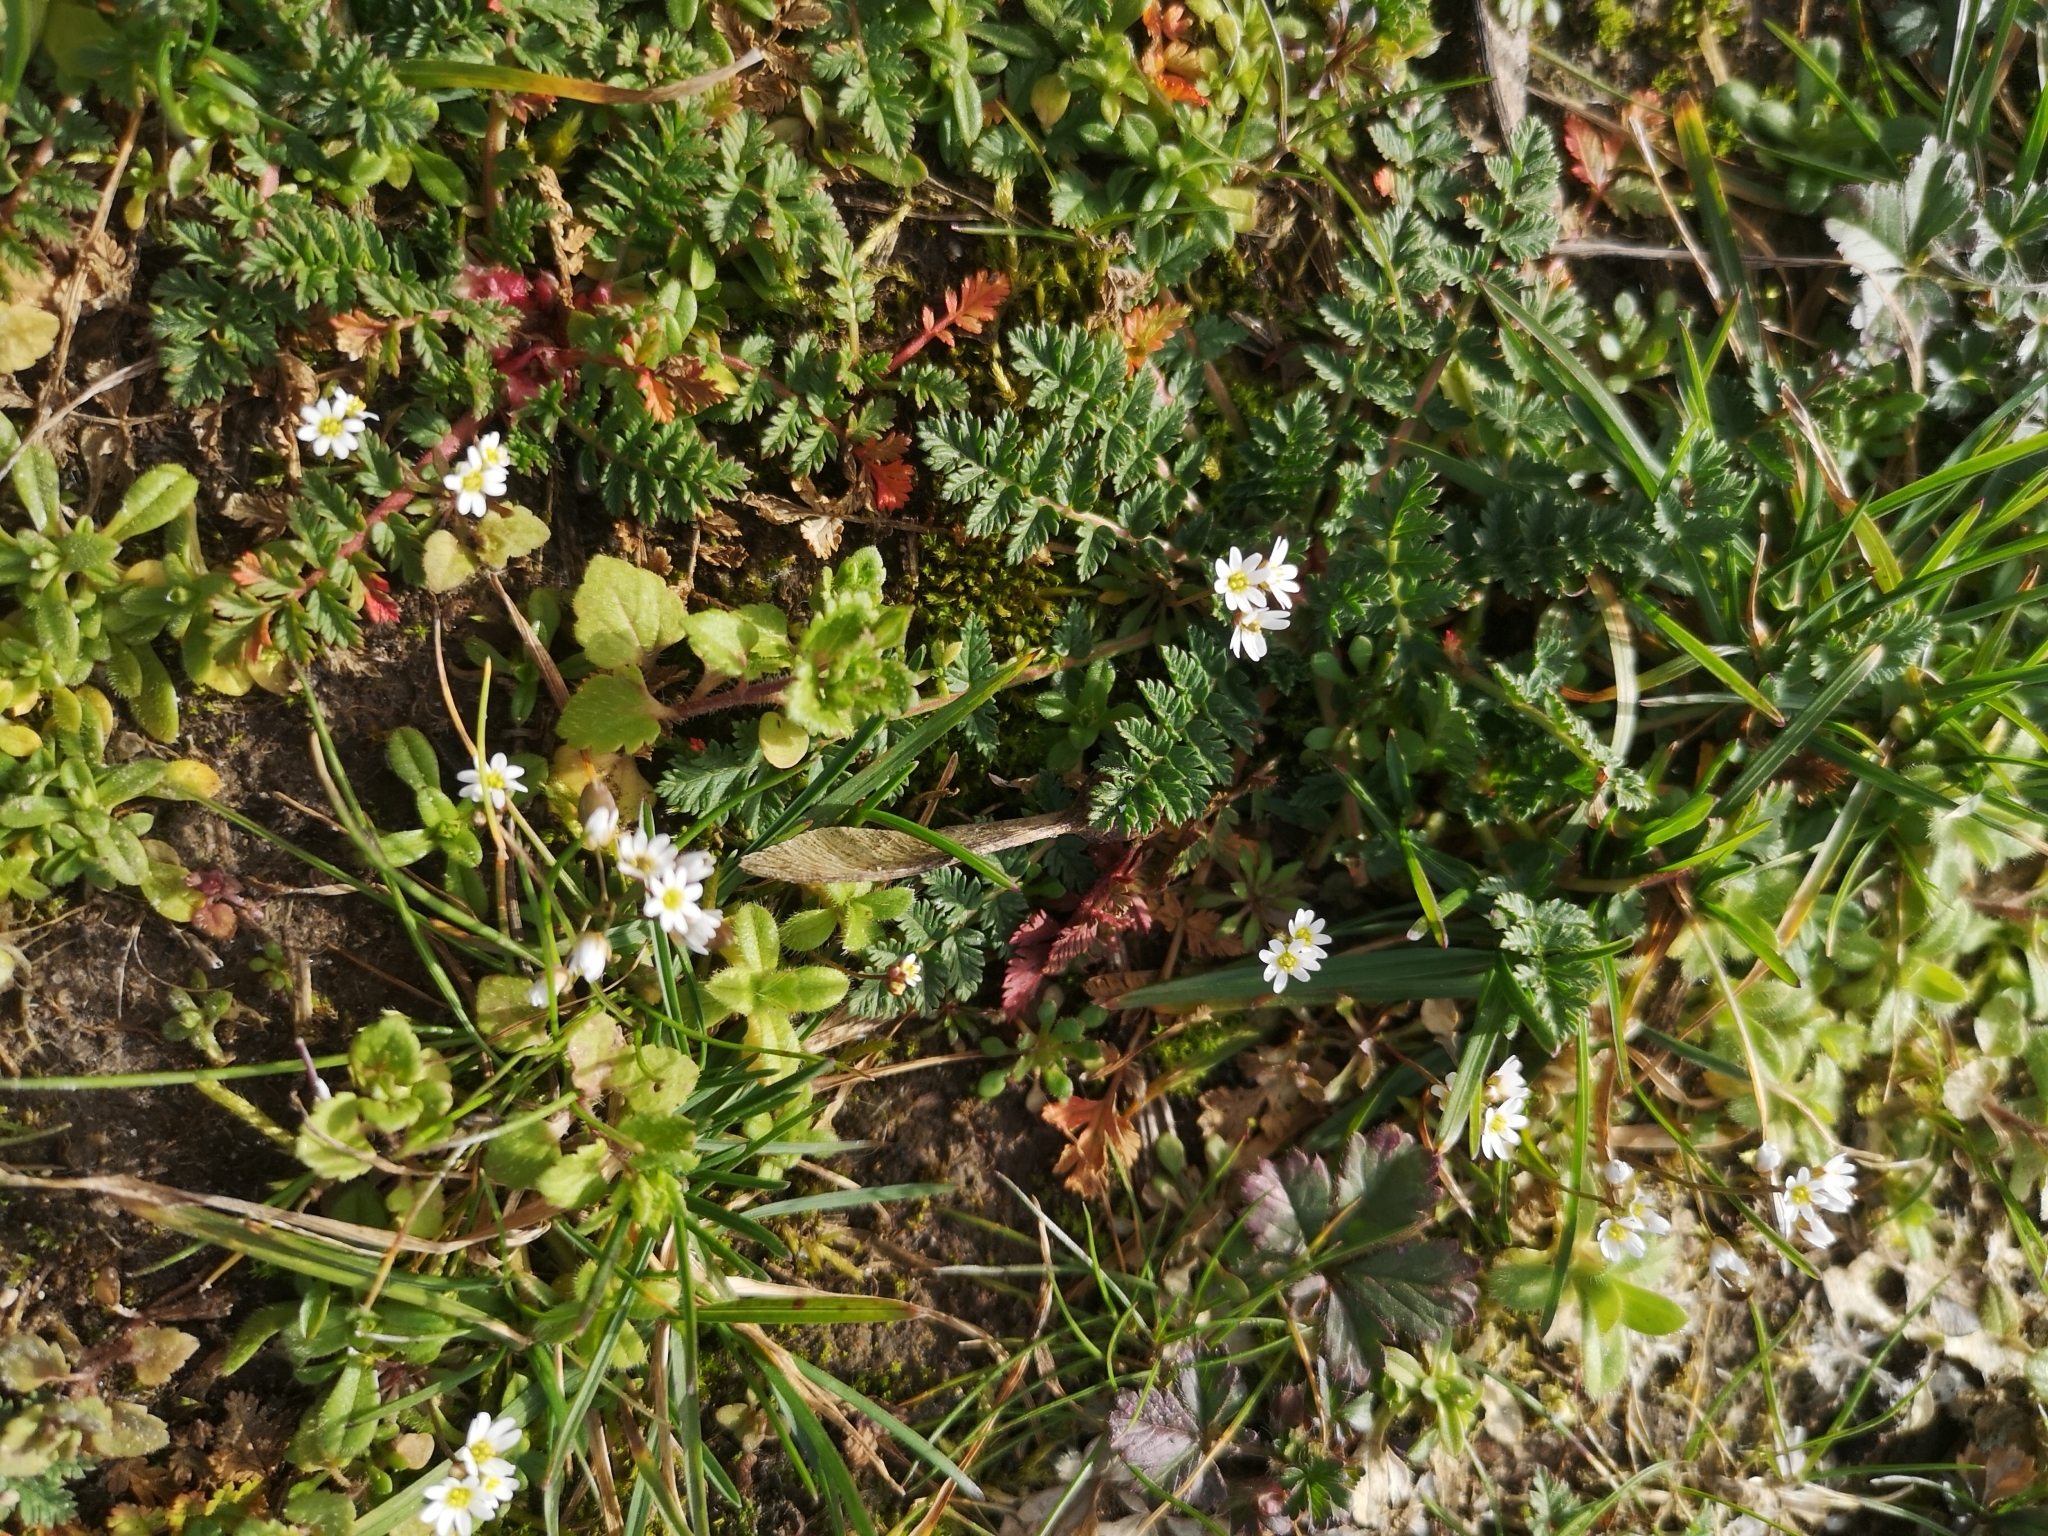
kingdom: Plantae
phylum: Tracheophyta
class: Magnoliopsida
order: Brassicales
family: Brassicaceae
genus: Draba
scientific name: Draba verna
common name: Spring draba
